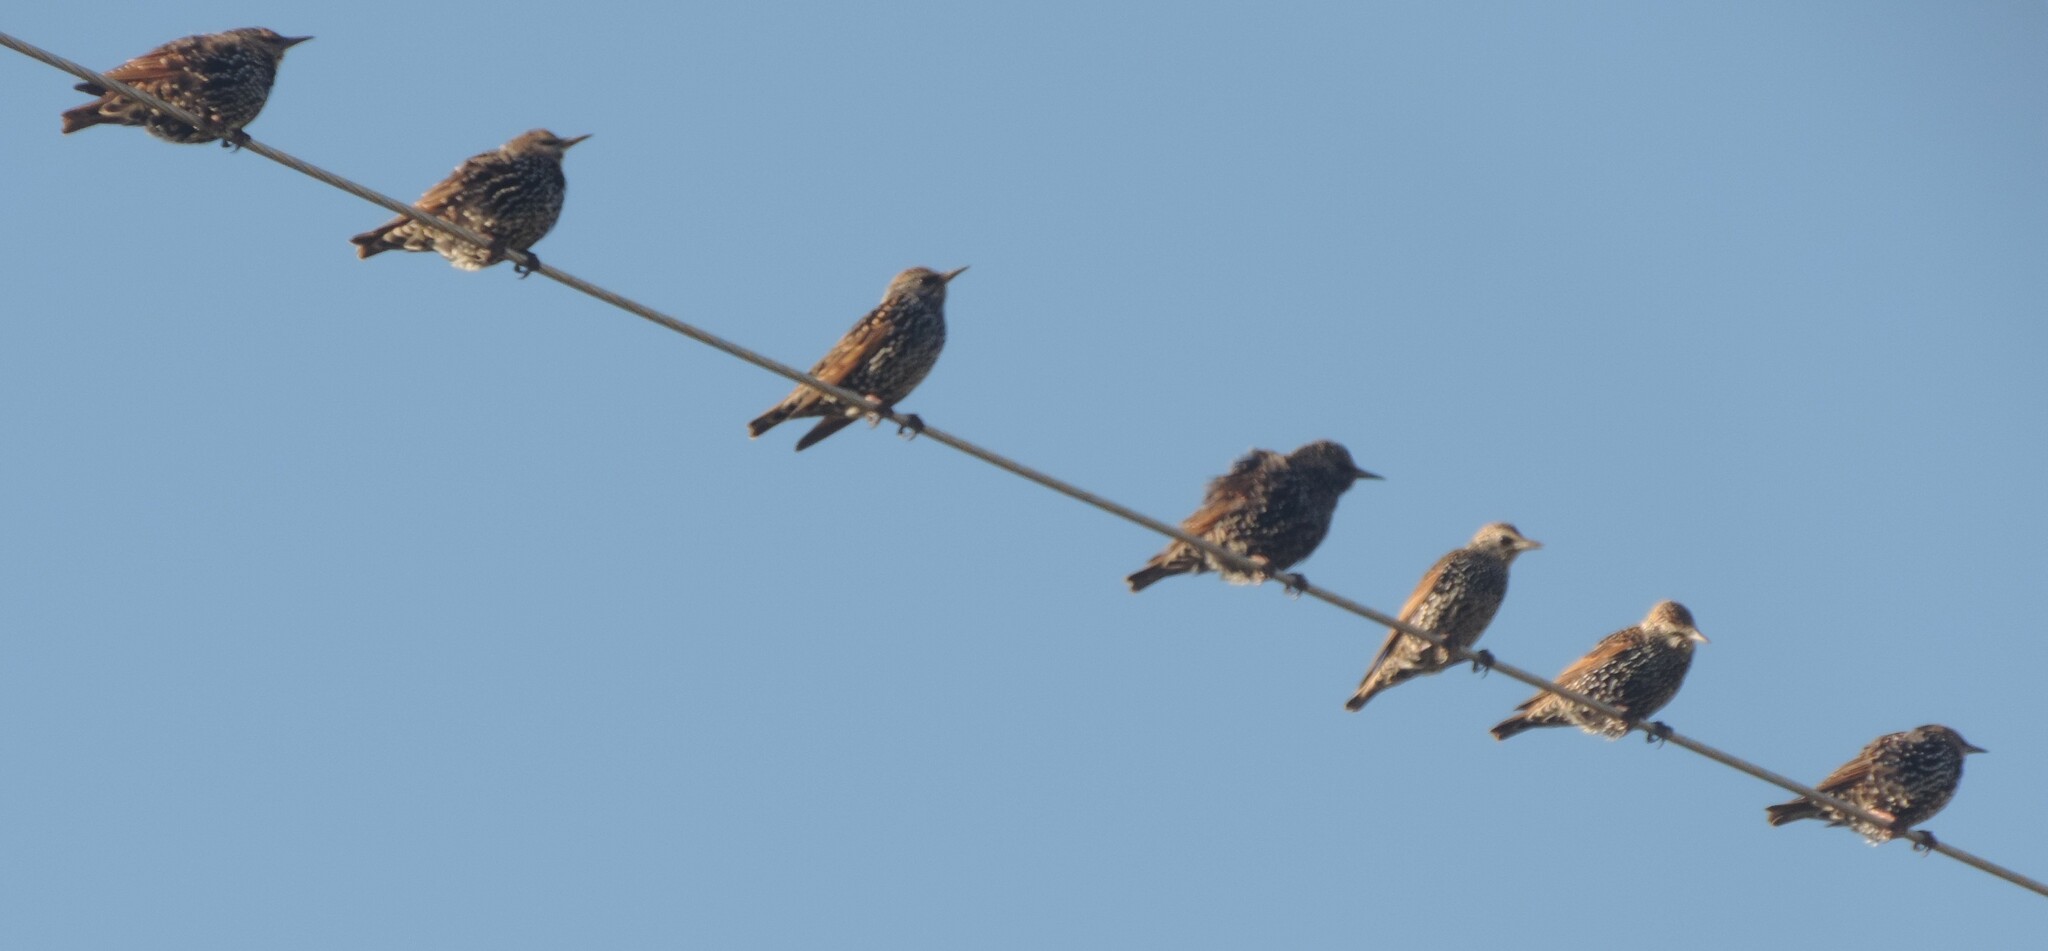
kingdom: Animalia
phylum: Chordata
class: Aves
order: Passeriformes
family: Sturnidae
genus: Sturnus
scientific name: Sturnus vulgaris
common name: Common starling
